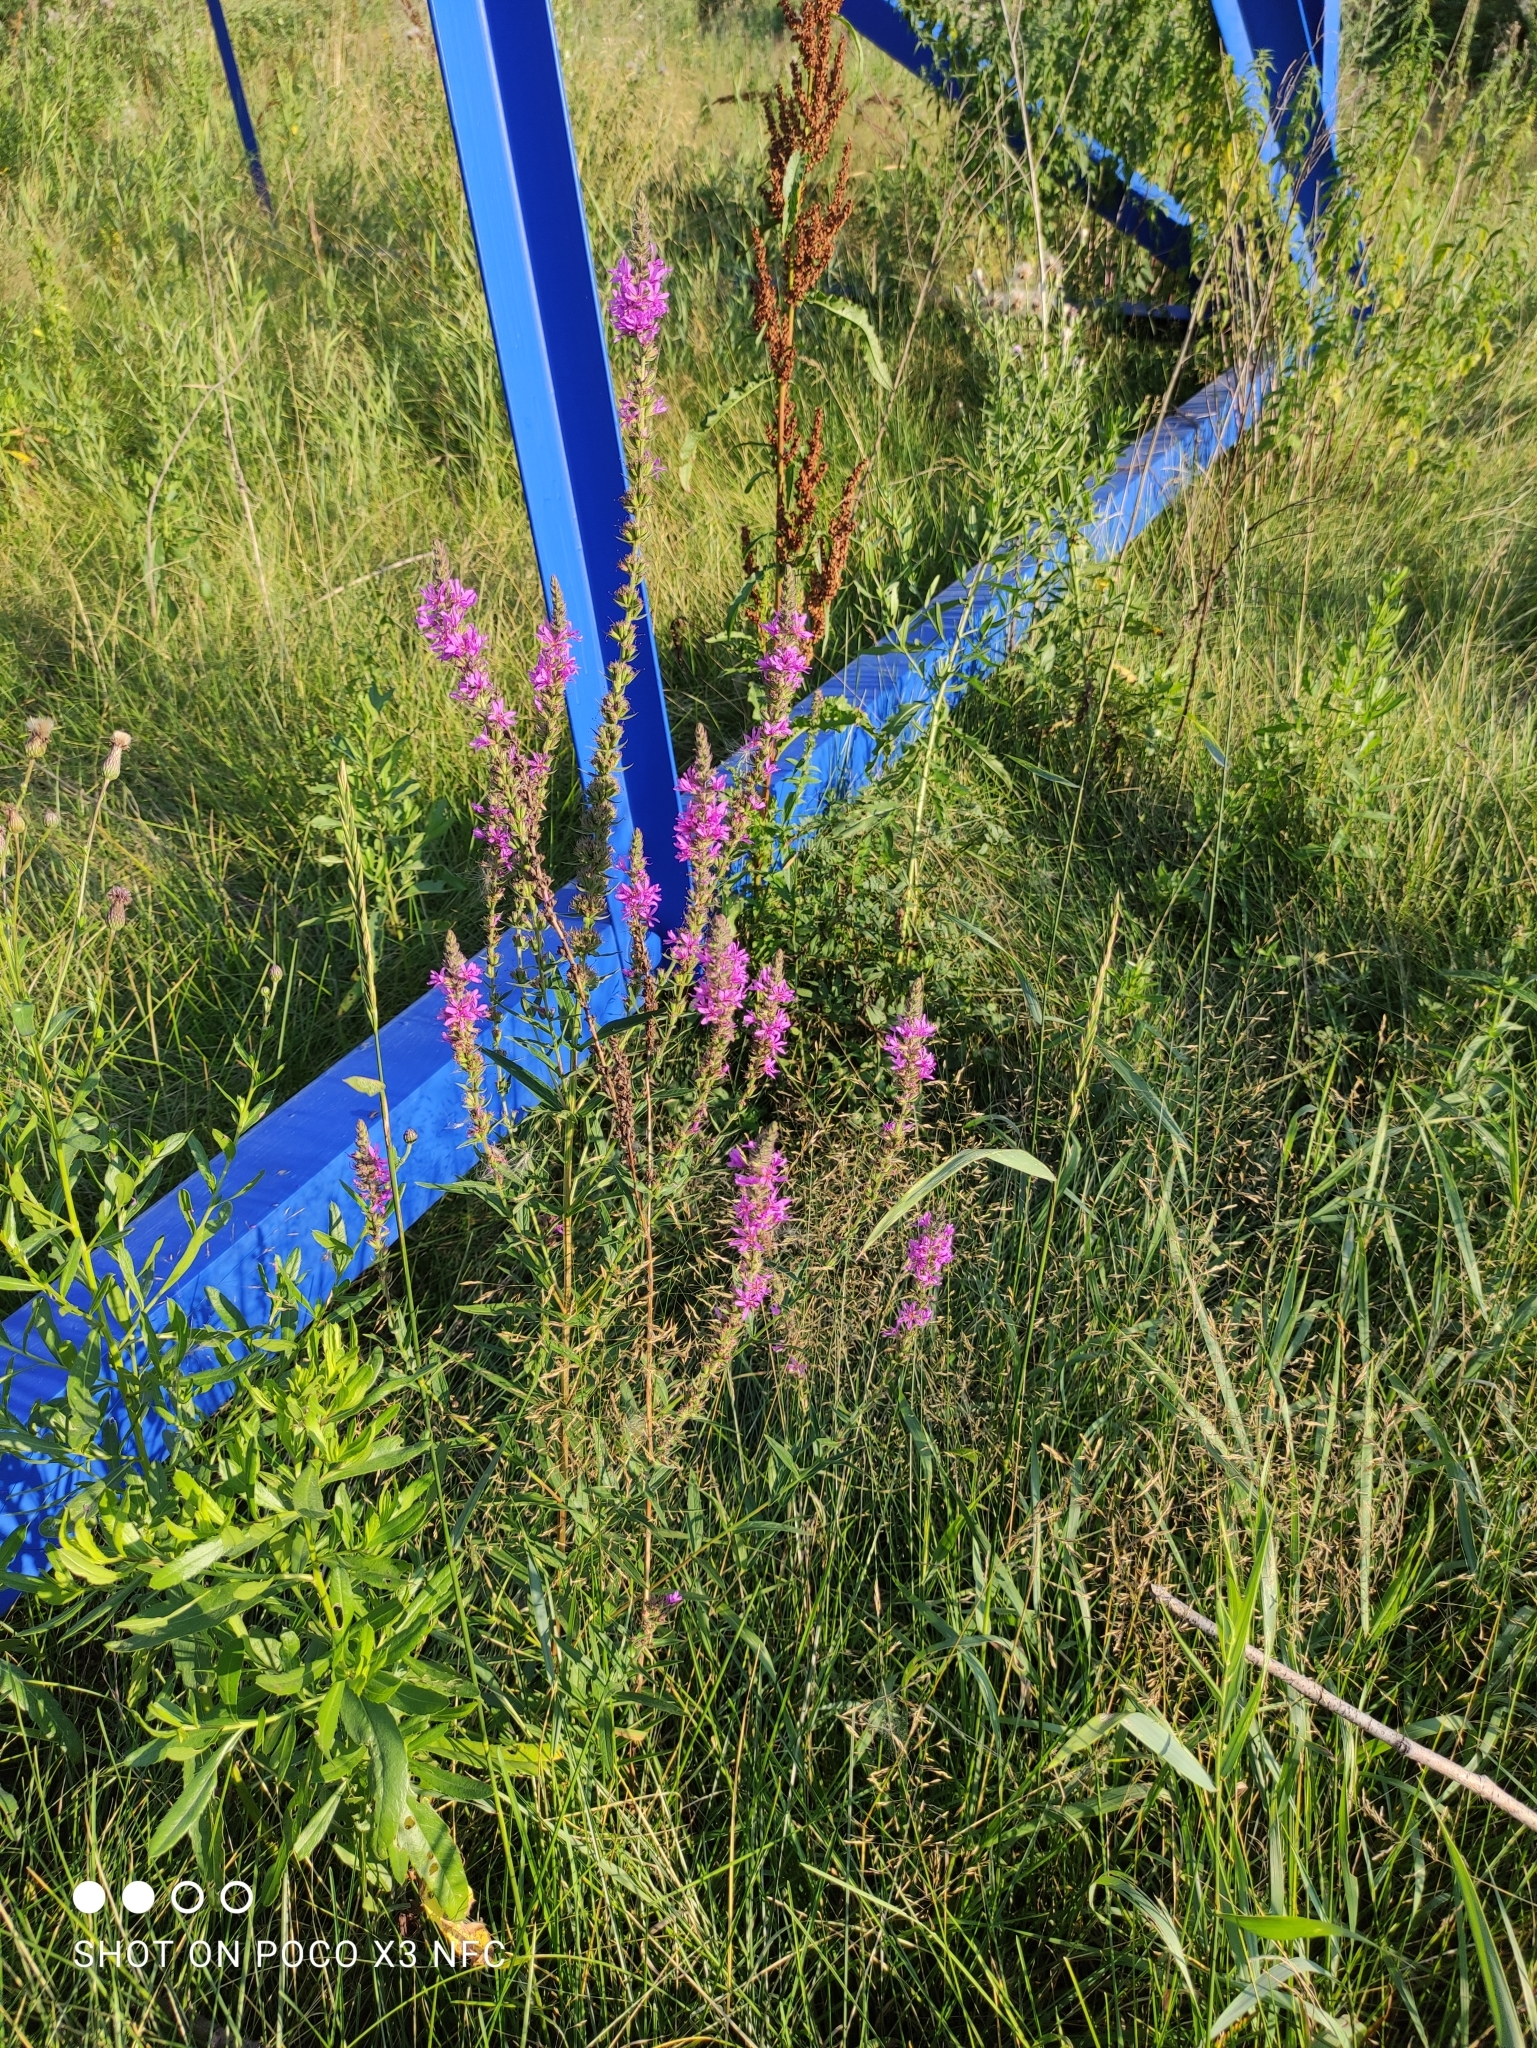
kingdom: Plantae
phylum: Tracheophyta
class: Magnoliopsida
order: Myrtales
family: Lythraceae
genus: Lythrum
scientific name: Lythrum salicaria
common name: Purple loosestrife
